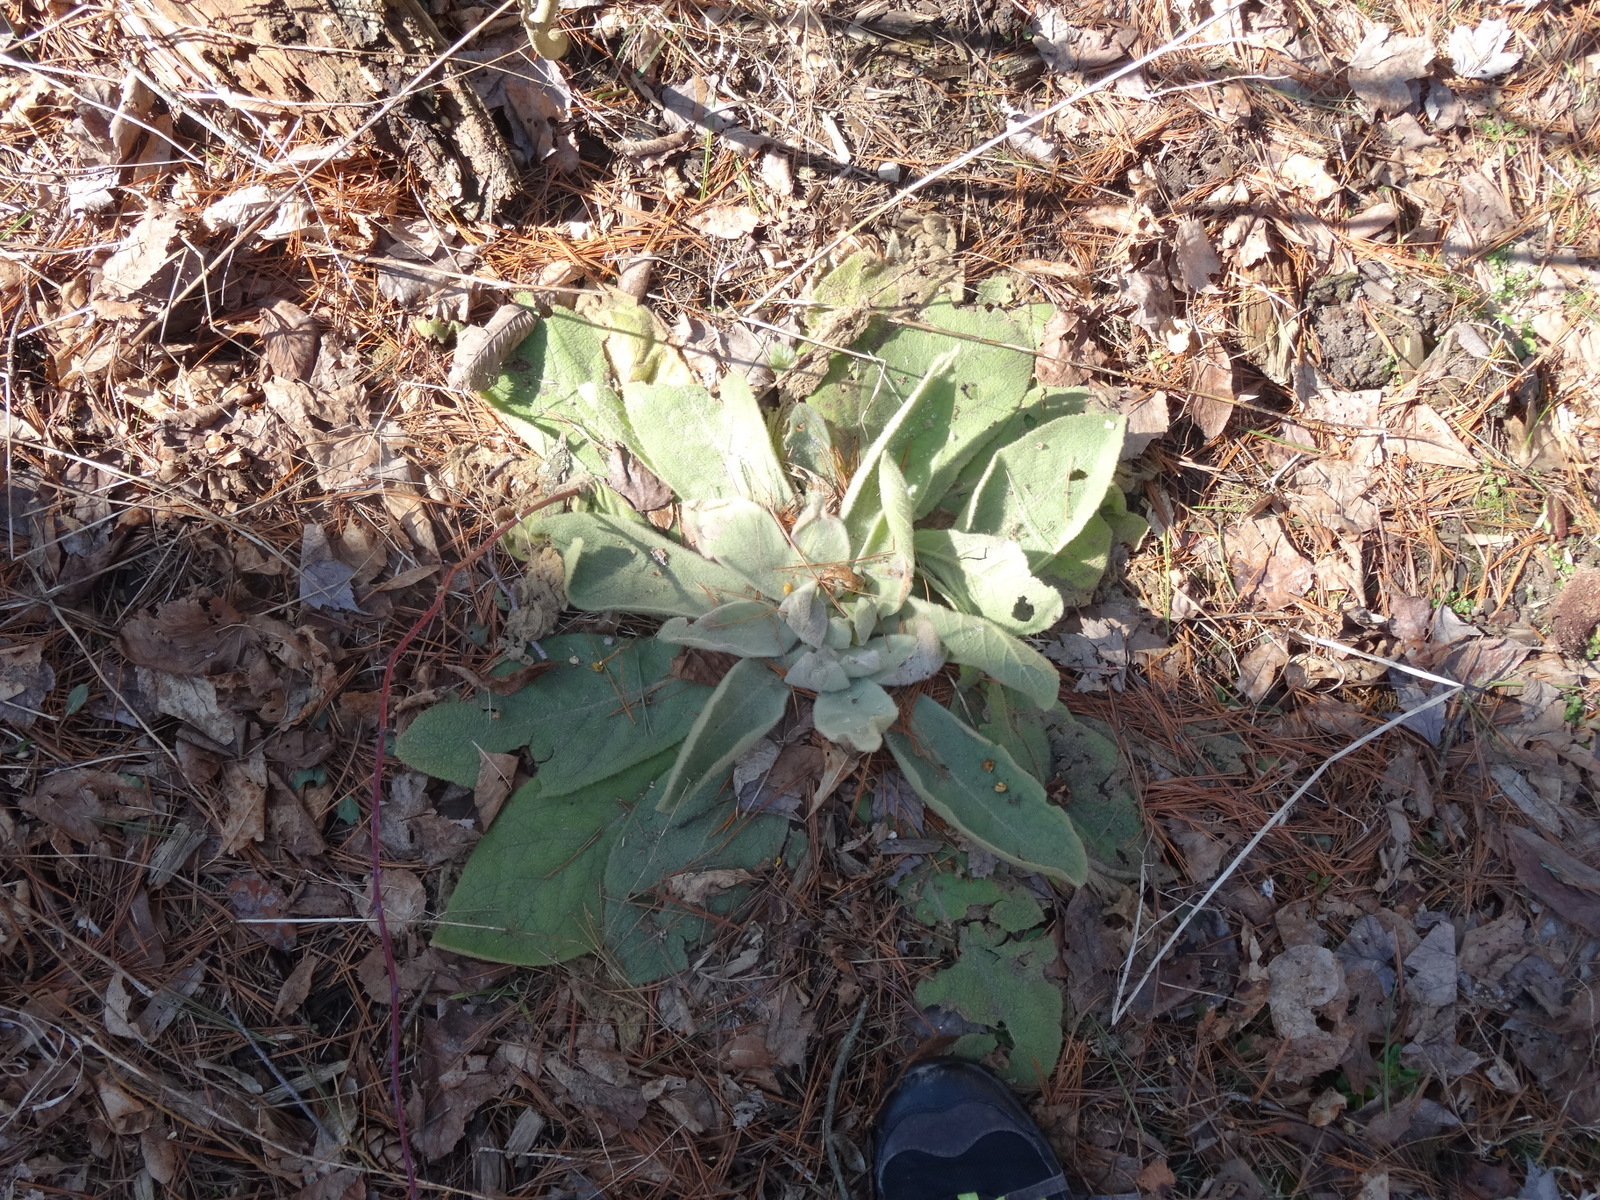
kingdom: Plantae
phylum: Tracheophyta
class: Magnoliopsida
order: Lamiales
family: Scrophulariaceae
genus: Verbascum
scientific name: Verbascum thapsus
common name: Common mullein
